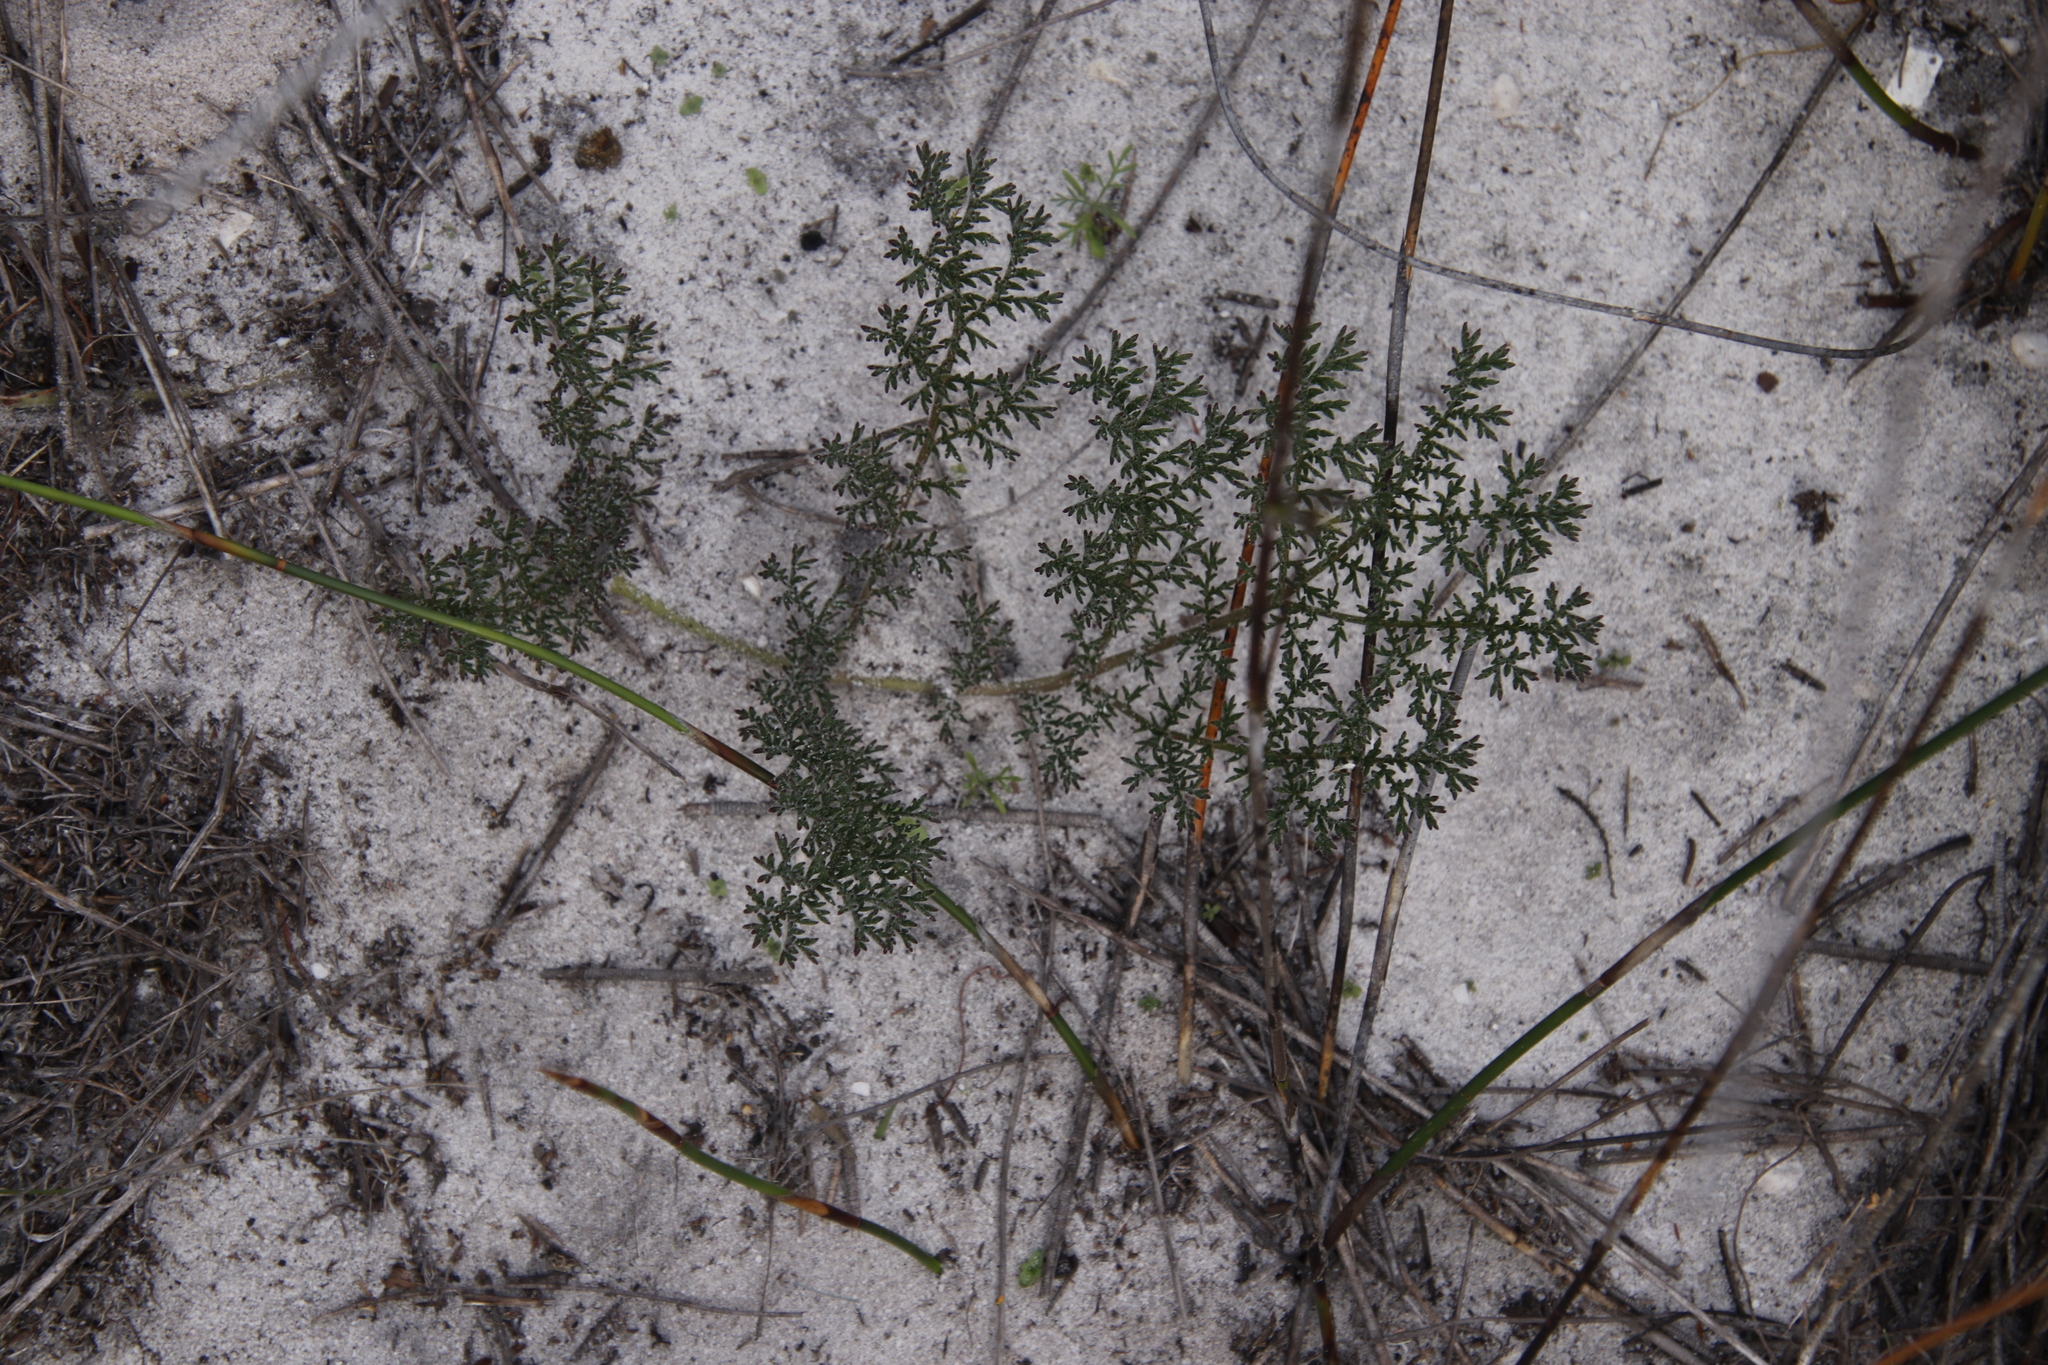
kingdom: Plantae
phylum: Tracheophyta
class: Magnoliopsida
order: Geraniales
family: Geraniaceae
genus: Pelargonium
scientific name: Pelargonium triste
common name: Night-scent pelargonium
